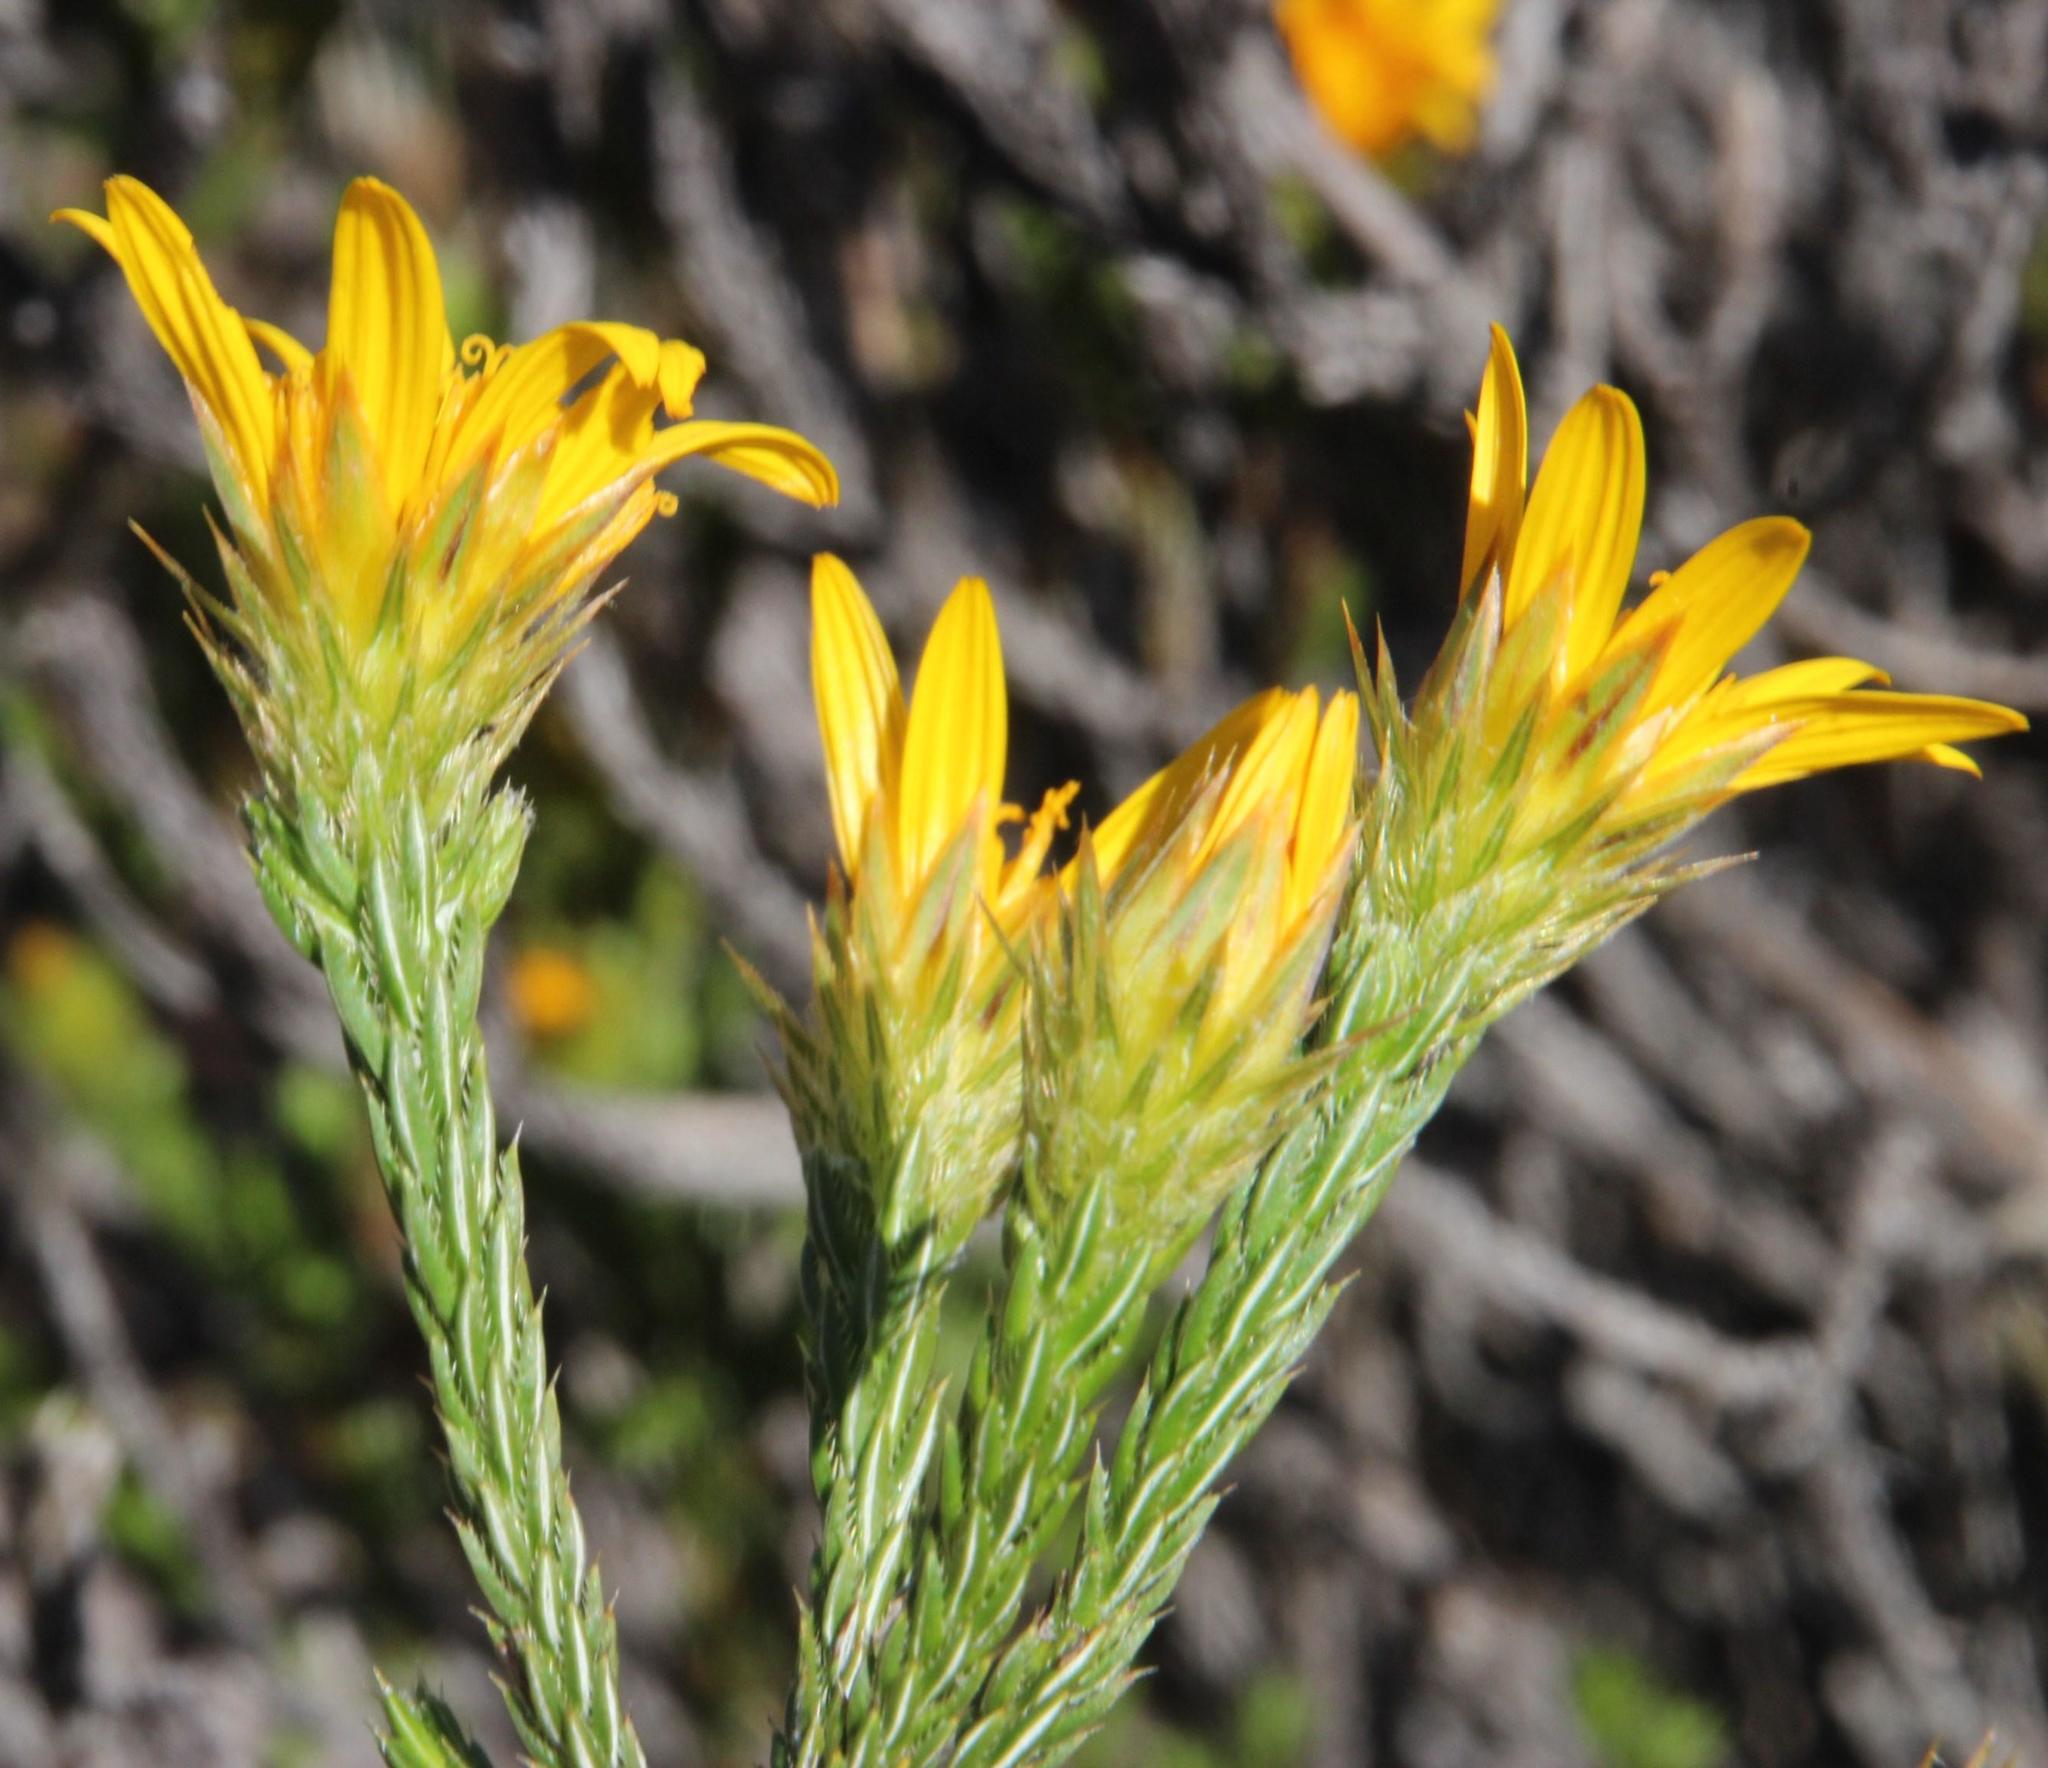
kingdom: Plantae
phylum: Tracheophyta
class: Magnoliopsida
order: Asterales
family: Asteraceae
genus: Cullumia
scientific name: Cullumia sulcata
